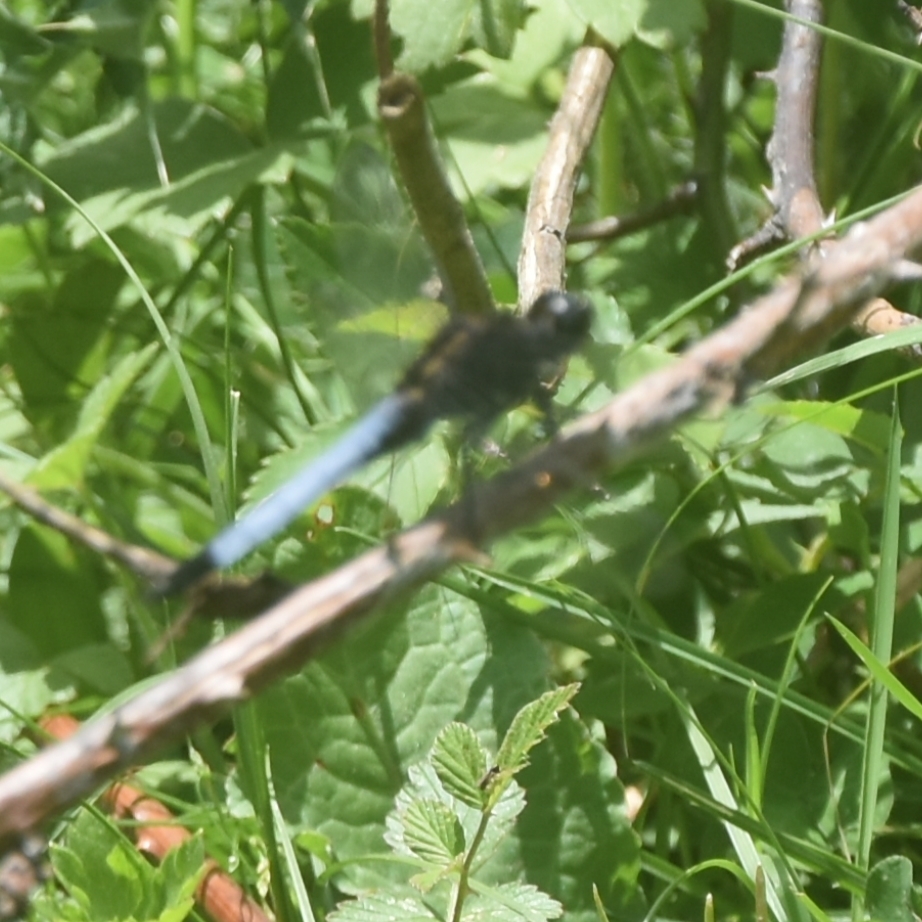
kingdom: Animalia
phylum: Arthropoda
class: Insecta
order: Odonata
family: Libellulidae
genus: Orthetrum
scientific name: Orthetrum triangulare
